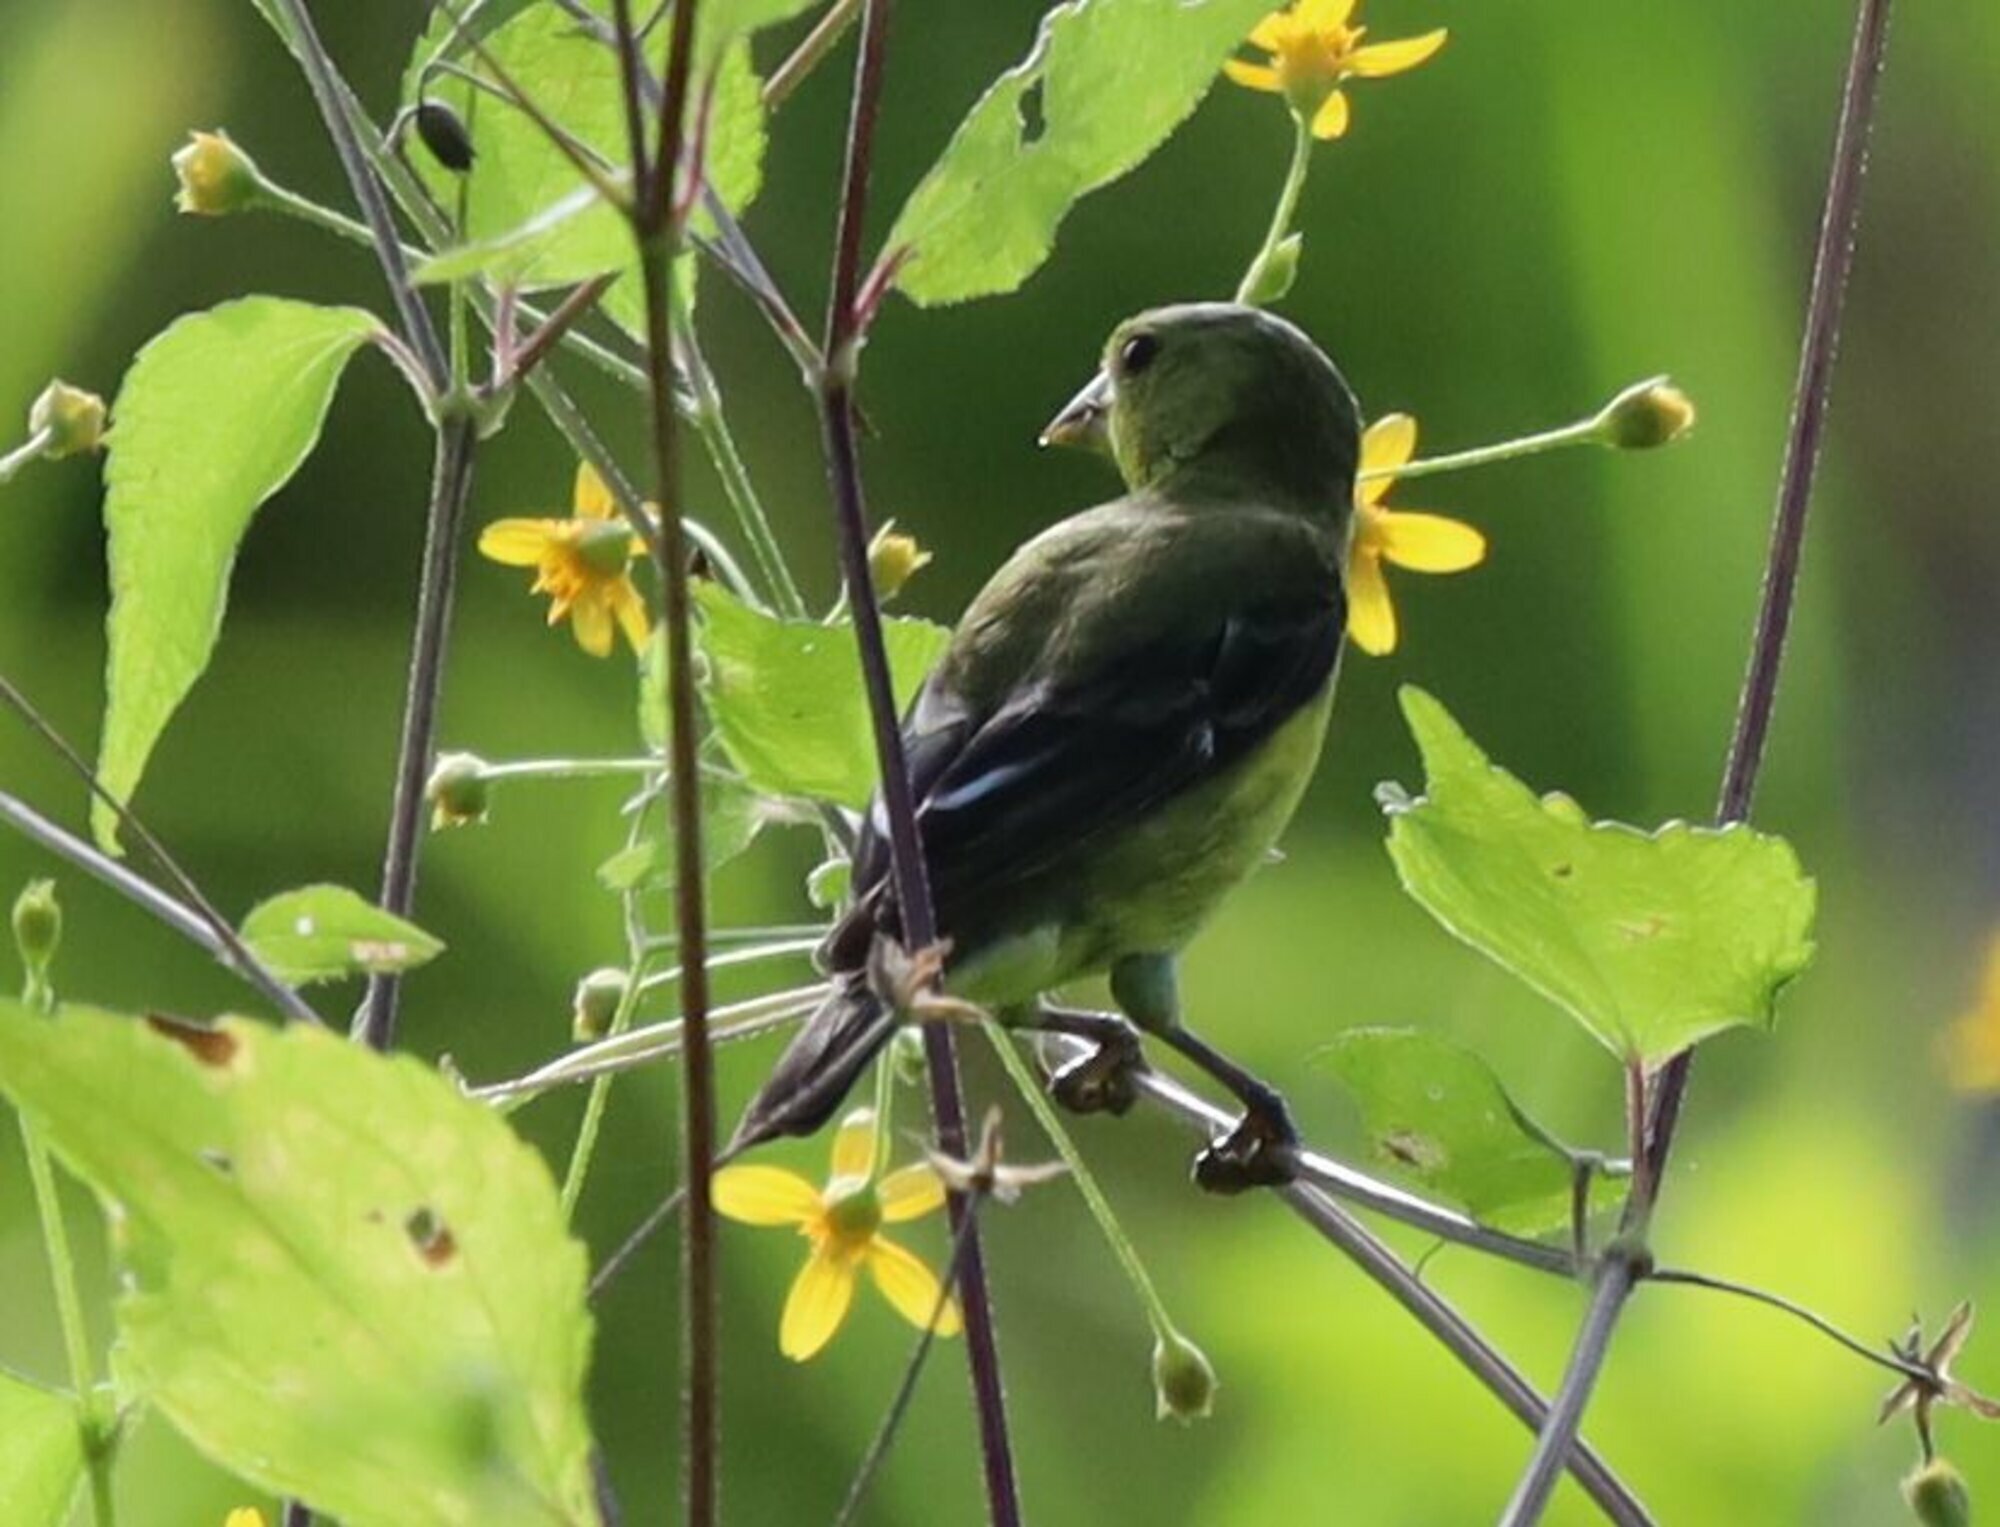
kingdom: Animalia
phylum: Chordata
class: Aves
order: Passeriformes
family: Fringillidae
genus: Spinus
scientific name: Spinus psaltria
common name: Lesser goldfinch
